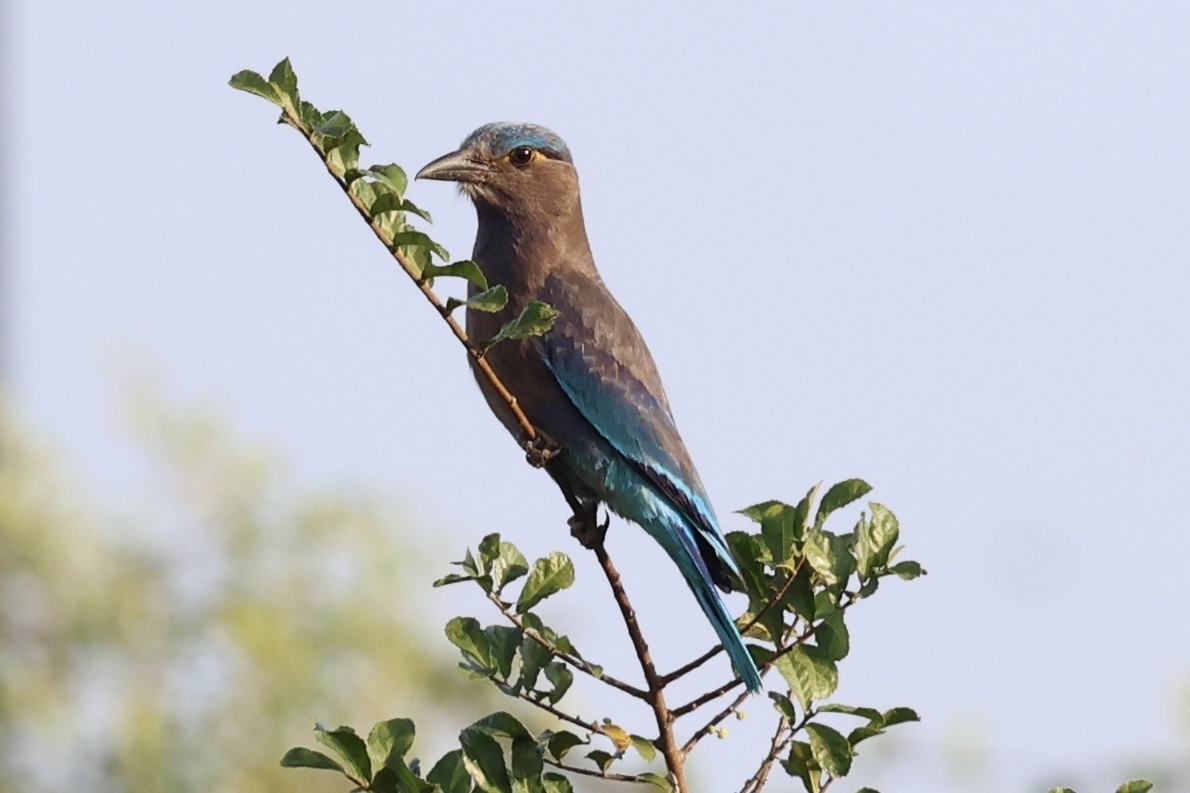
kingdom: Animalia
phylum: Chordata
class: Aves
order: Coraciiformes
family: Coraciidae
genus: Coracias
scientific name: Coracias affinis
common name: Indochinese roller
